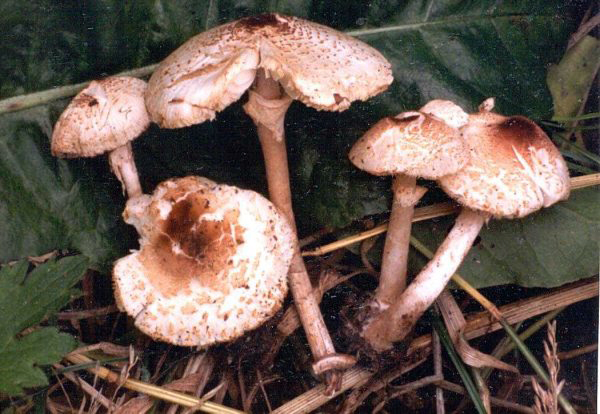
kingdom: Fungi
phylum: Basidiomycota
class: Agaricomycetes
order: Agaricales
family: Agaricaceae
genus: Lepiota
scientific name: Lepiota cristata
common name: Stinking dapperling
